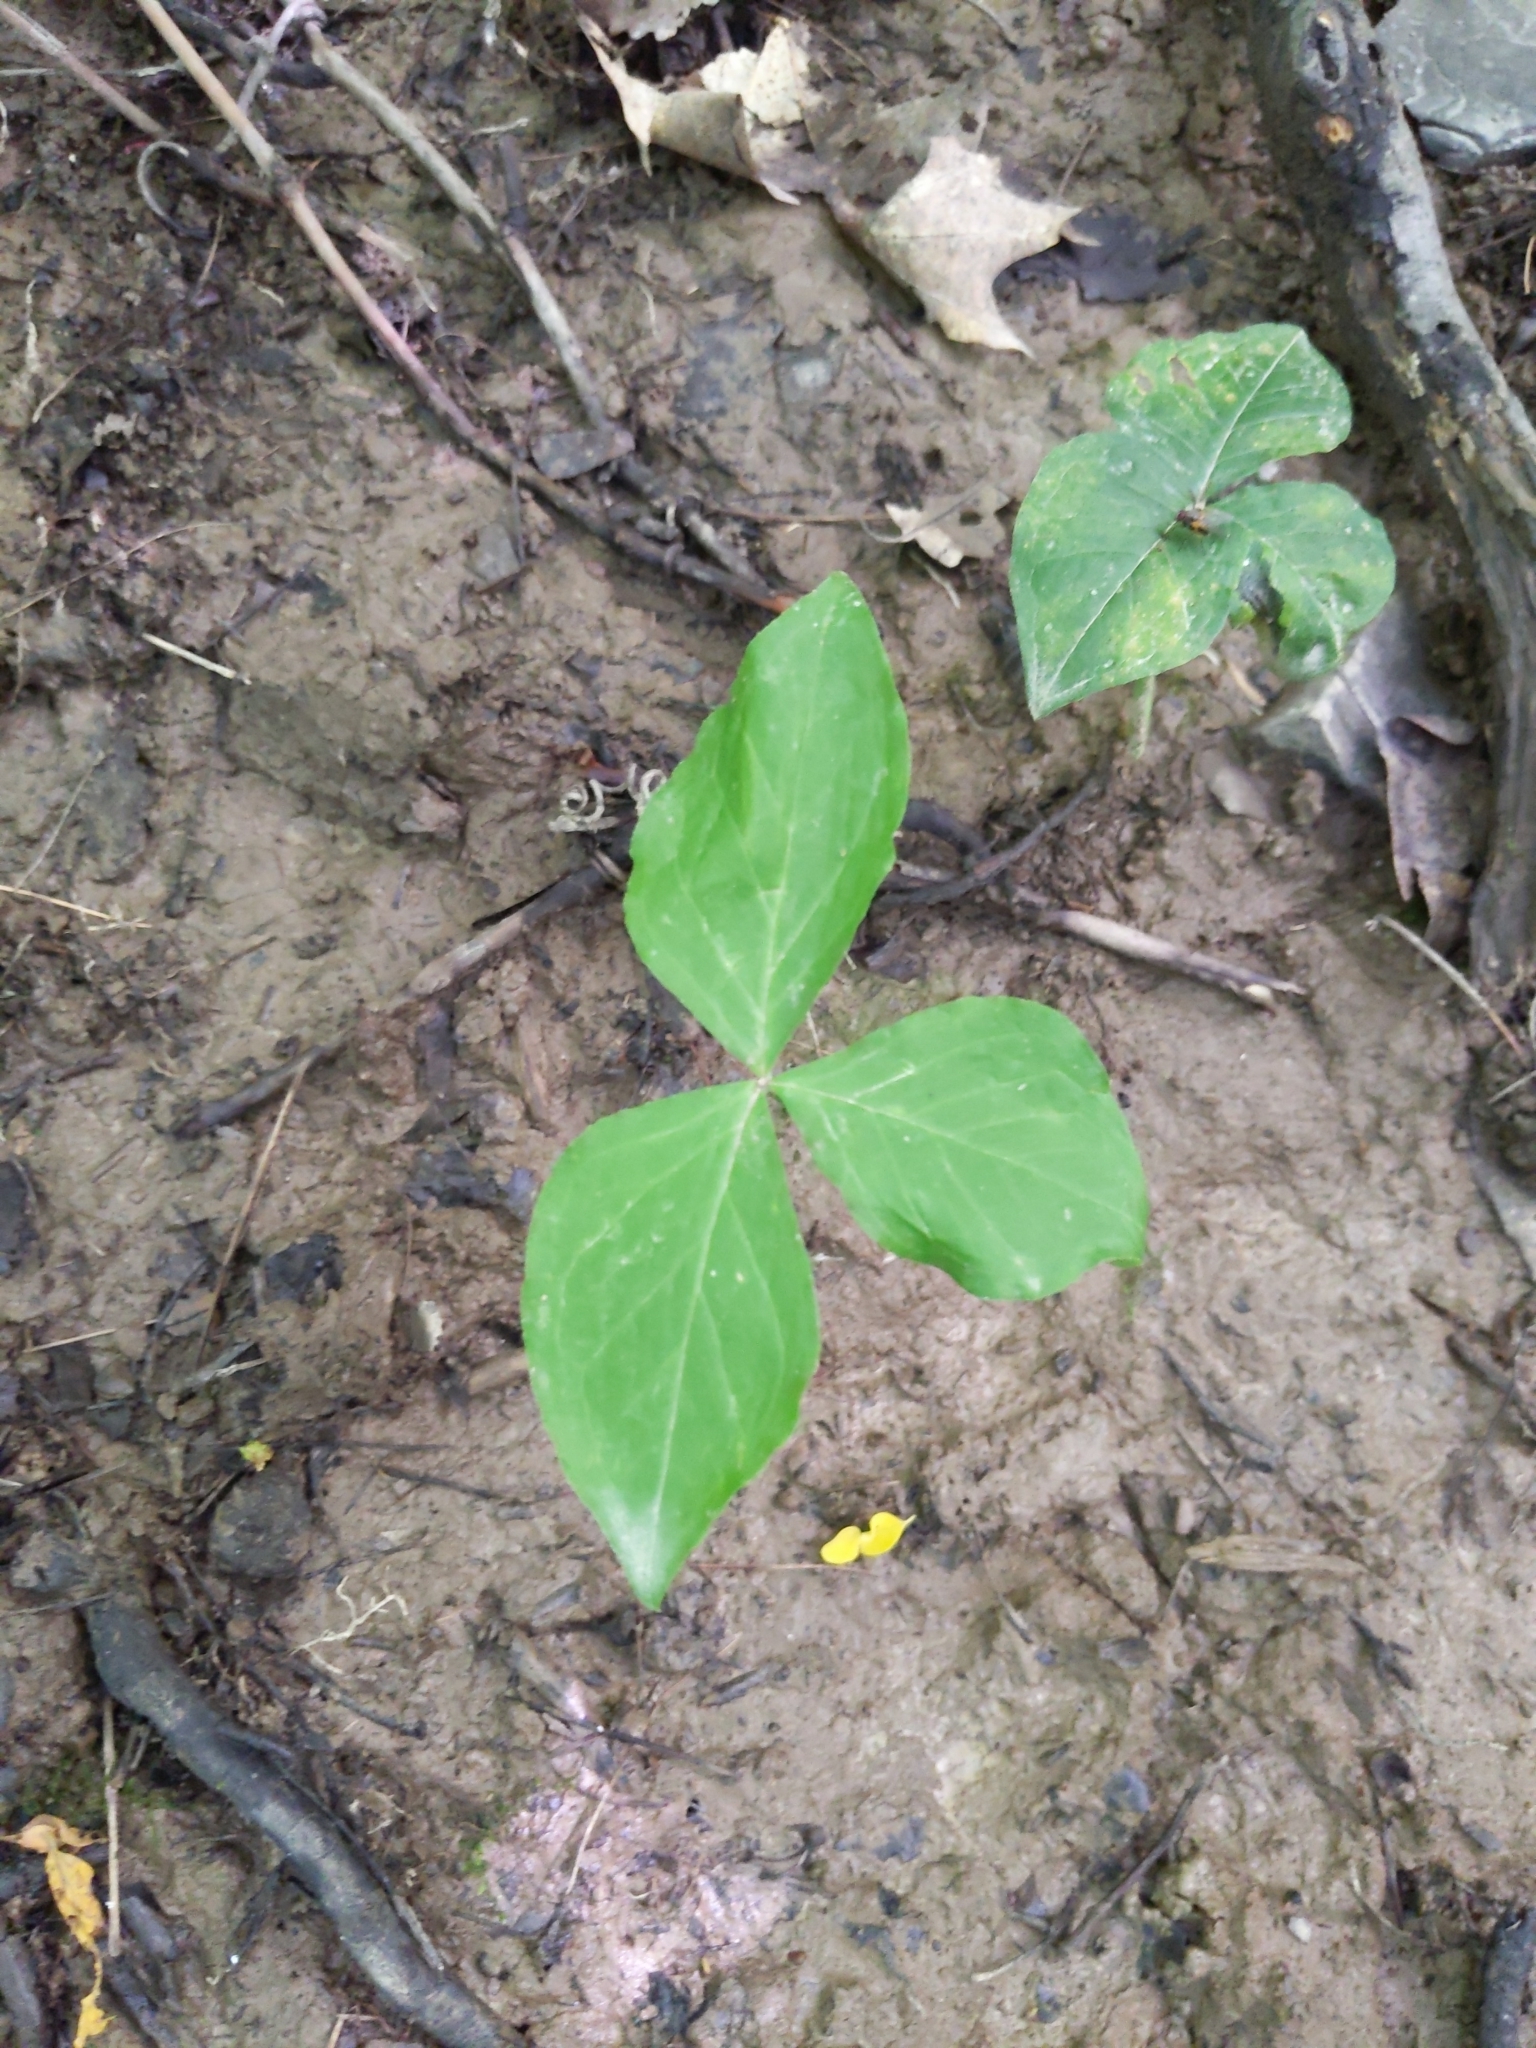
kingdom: Plantae
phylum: Tracheophyta
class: Liliopsida
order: Alismatales
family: Araceae
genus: Arisaema
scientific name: Arisaema triphyllum
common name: Jack-in-the-pulpit
